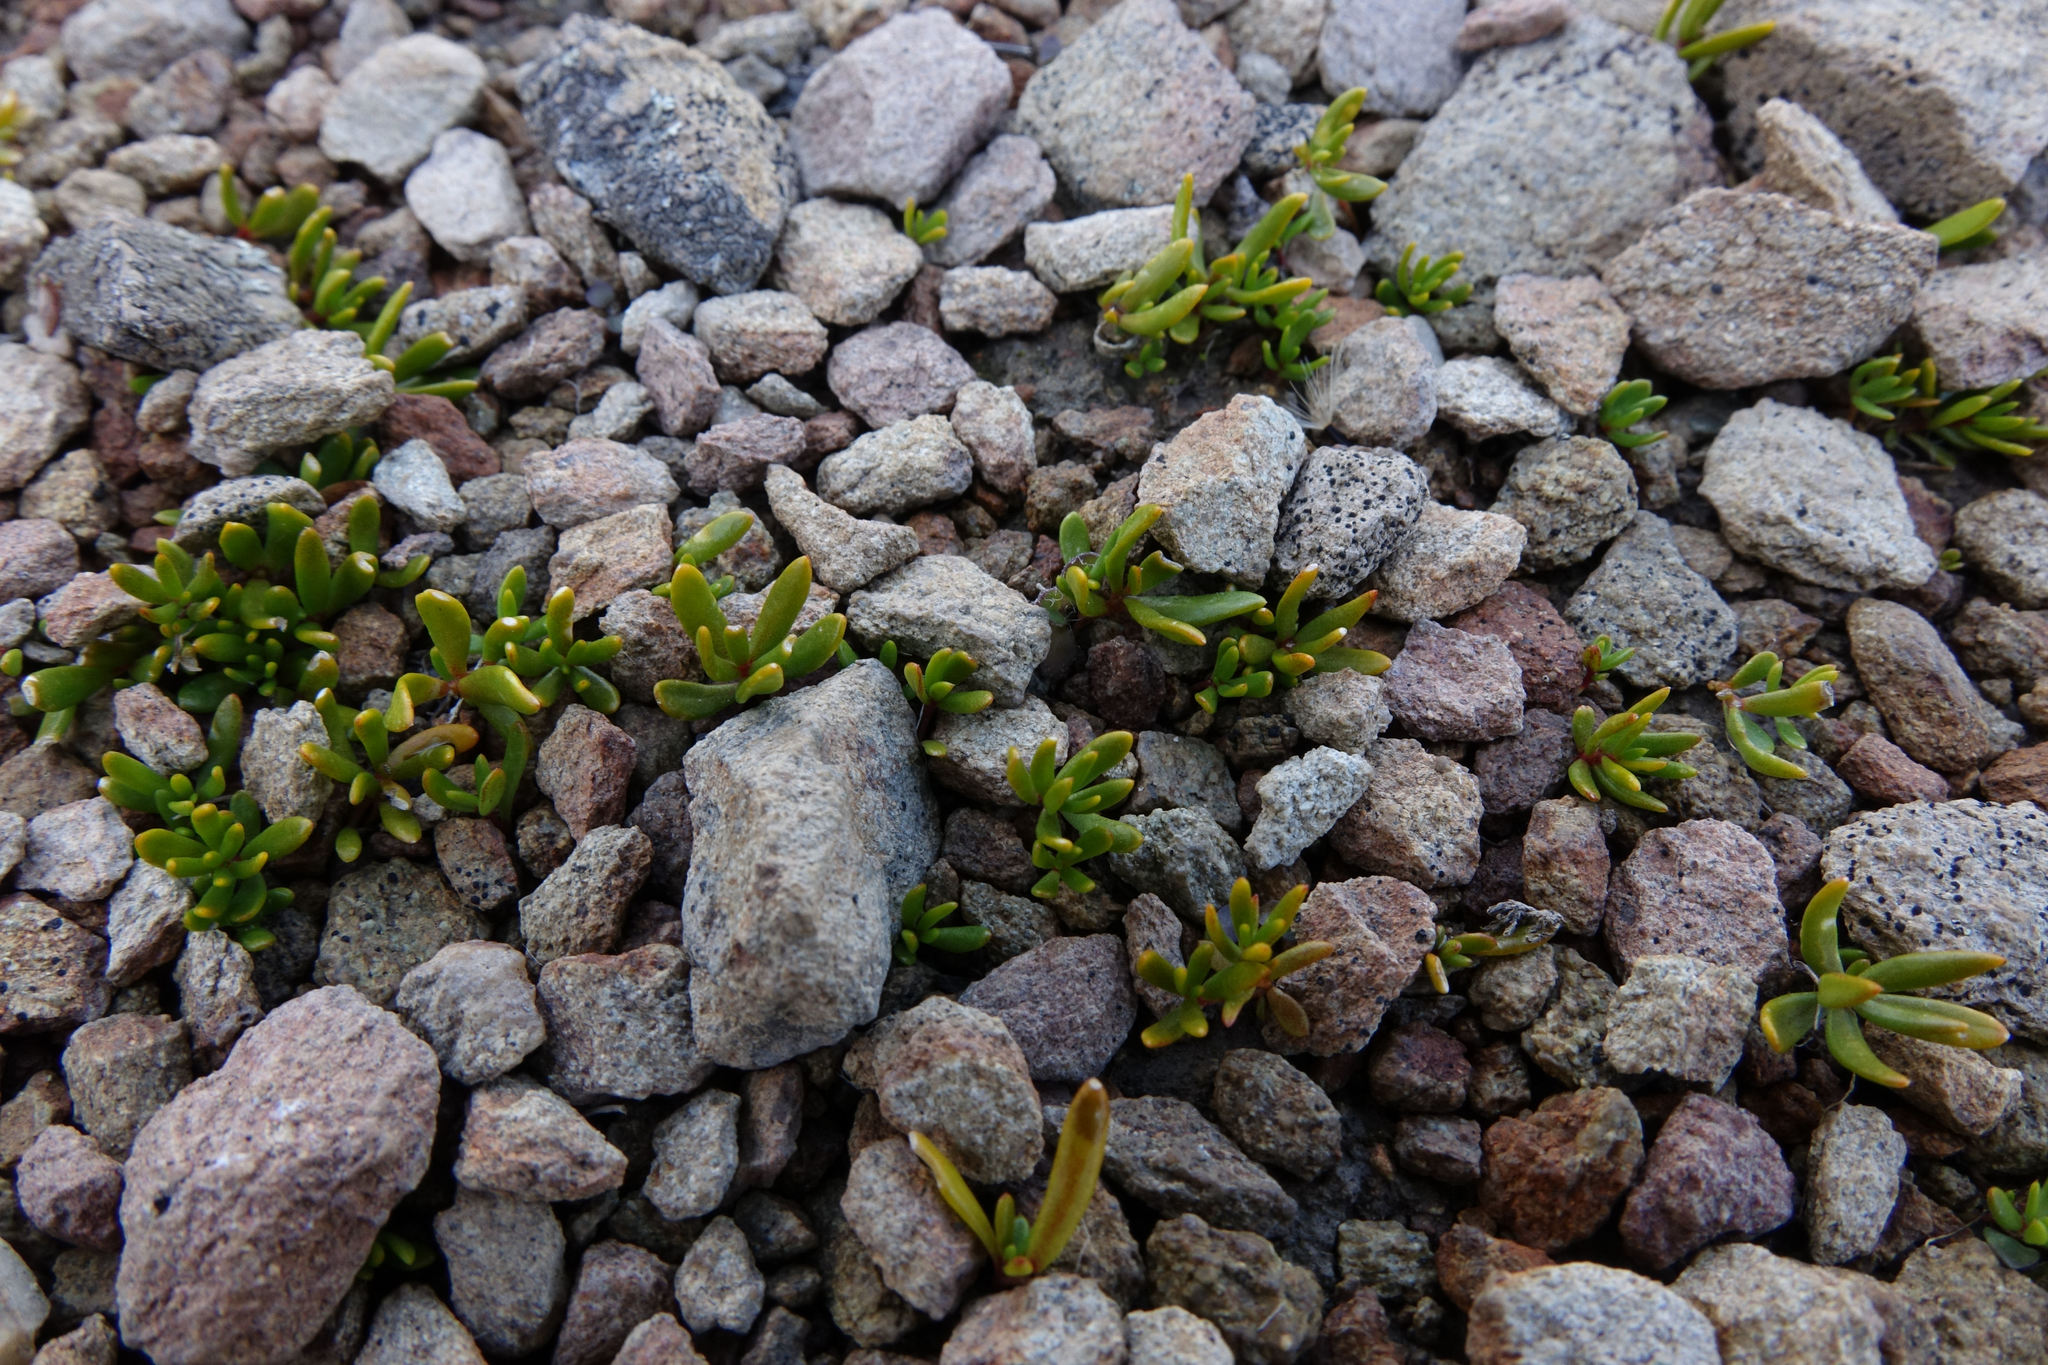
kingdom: Plantae
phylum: Tracheophyta
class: Magnoliopsida
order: Celastrales
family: Celastraceae
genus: Stackhousia
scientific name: Stackhousia minima
